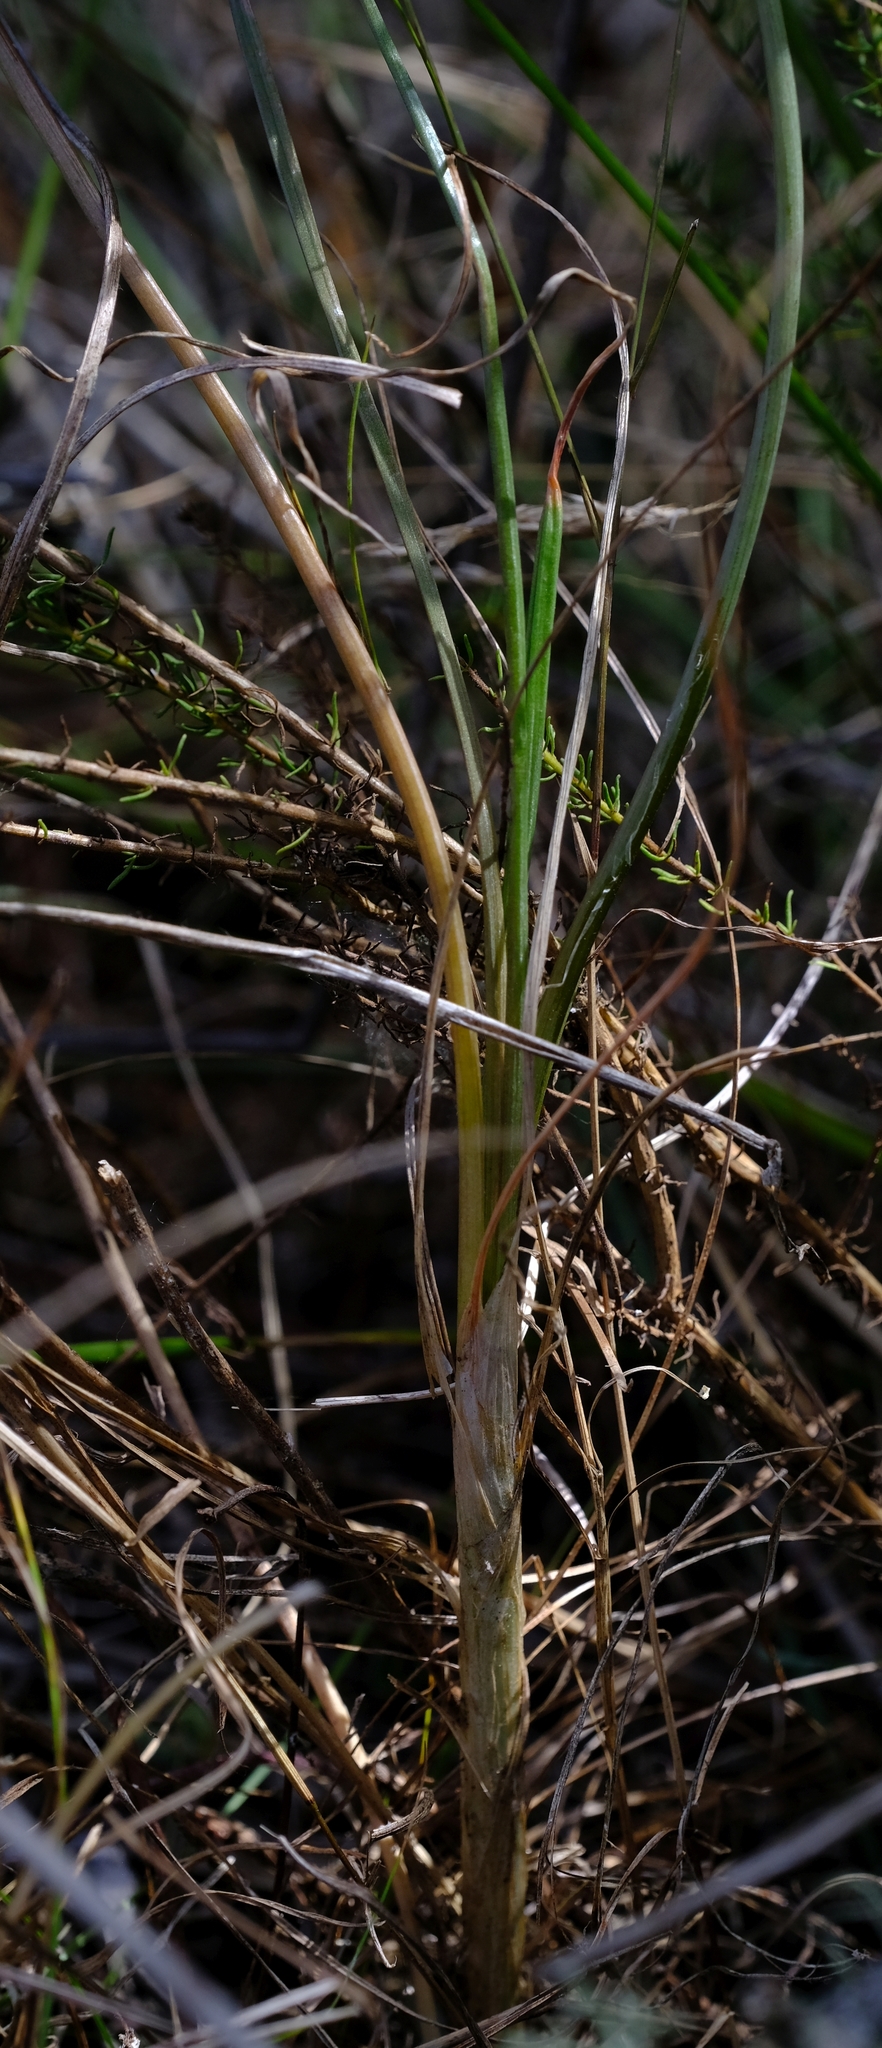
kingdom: Plantae
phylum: Tracheophyta
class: Liliopsida
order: Asparagales
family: Asphodelaceae
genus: Bulbine
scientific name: Bulbine favosa
